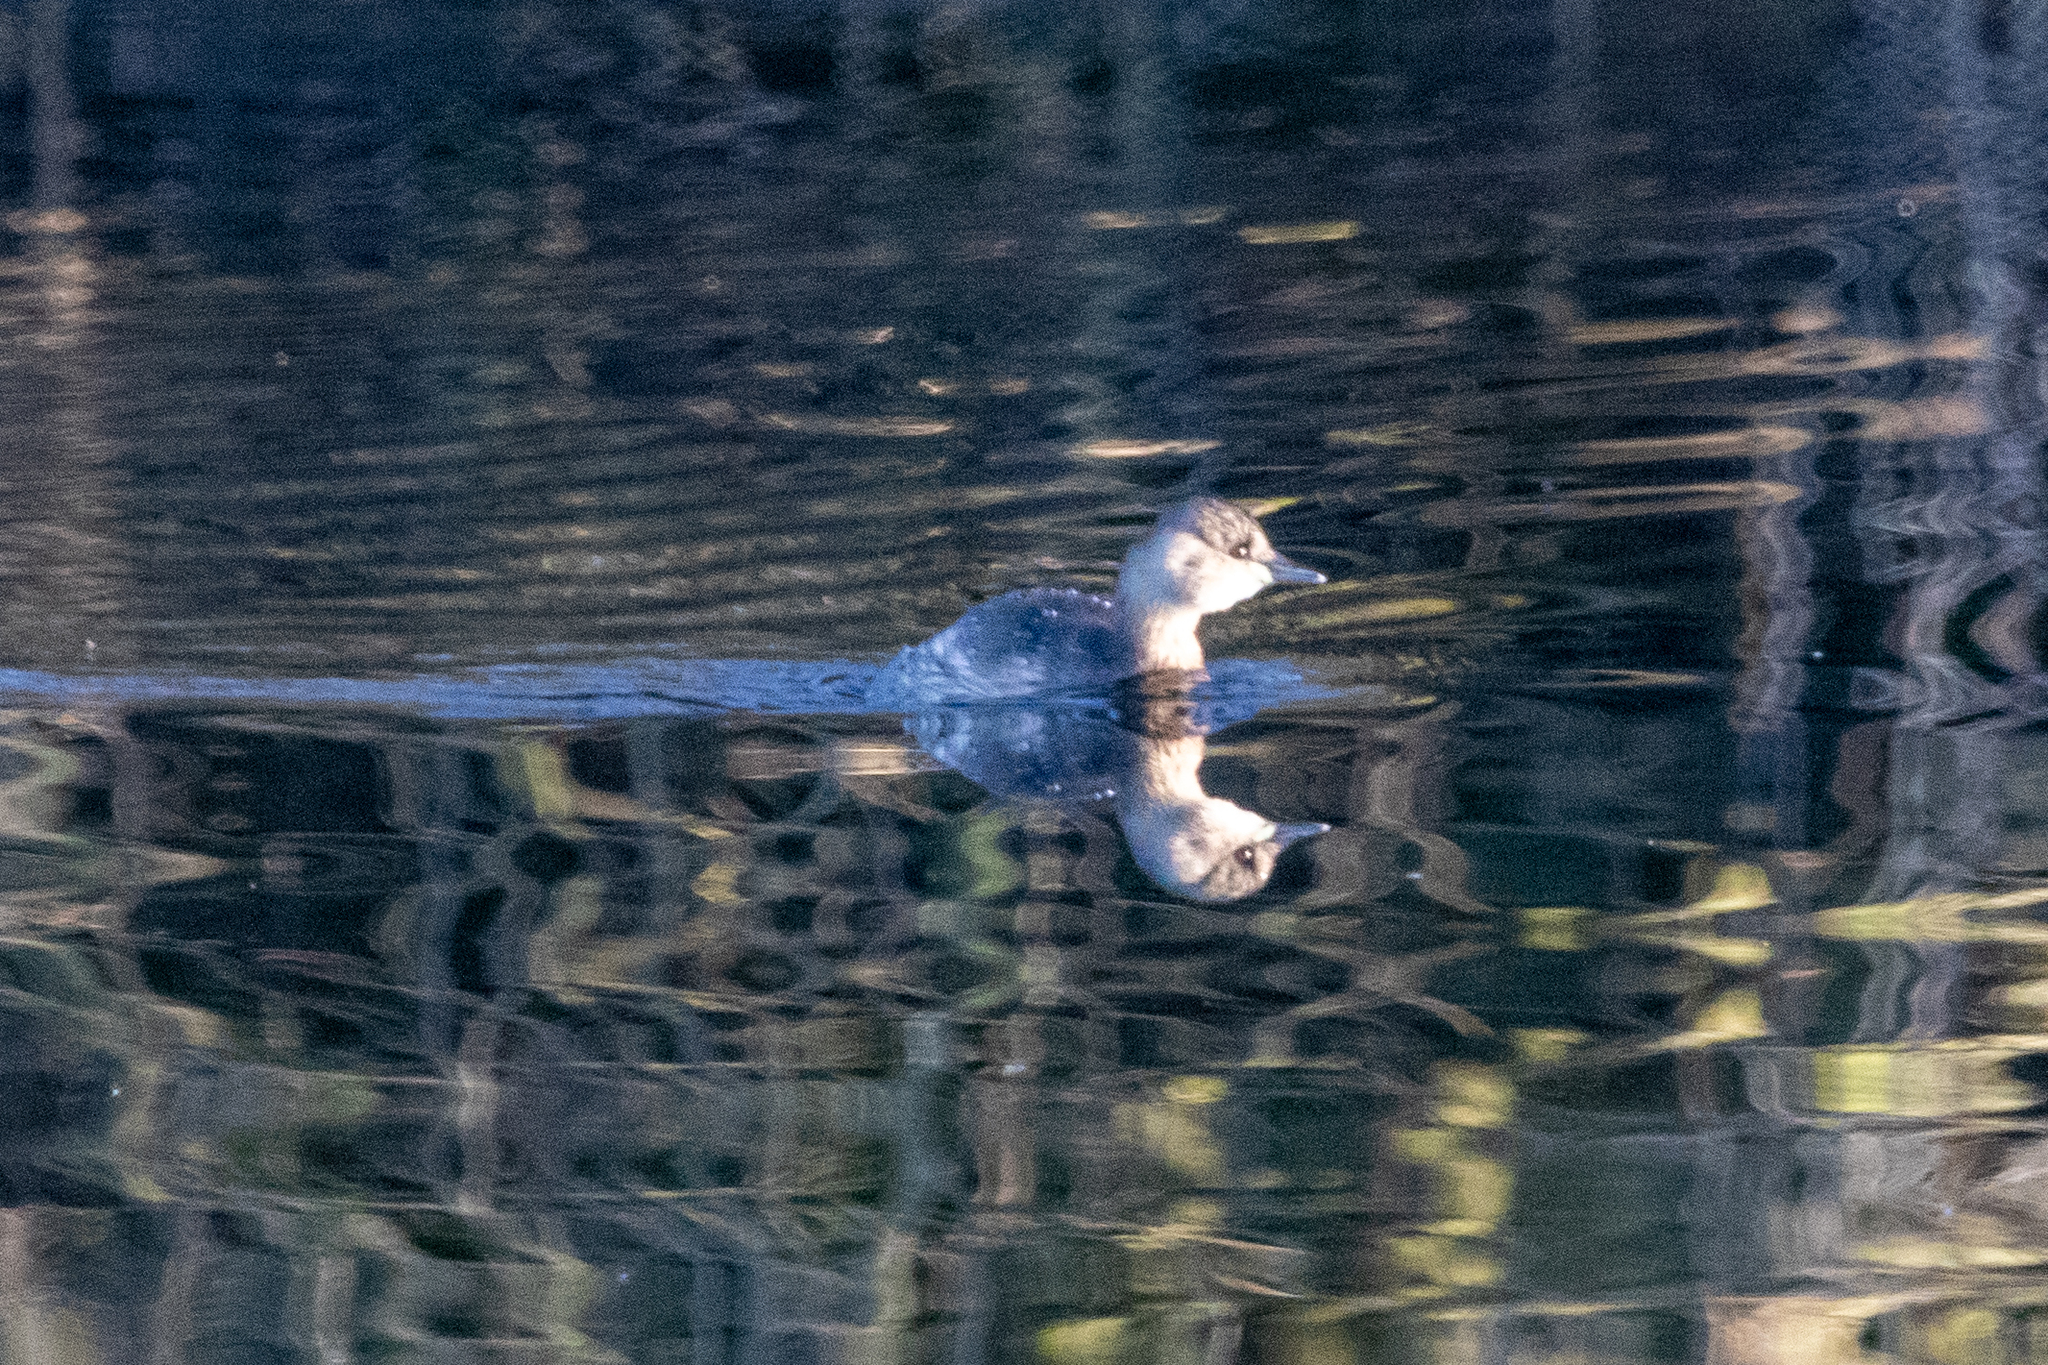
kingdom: Animalia
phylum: Chordata
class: Aves
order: Podicipediformes
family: Podicipedidae
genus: Tachybaptus
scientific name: Tachybaptus ruficollis
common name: Little grebe
